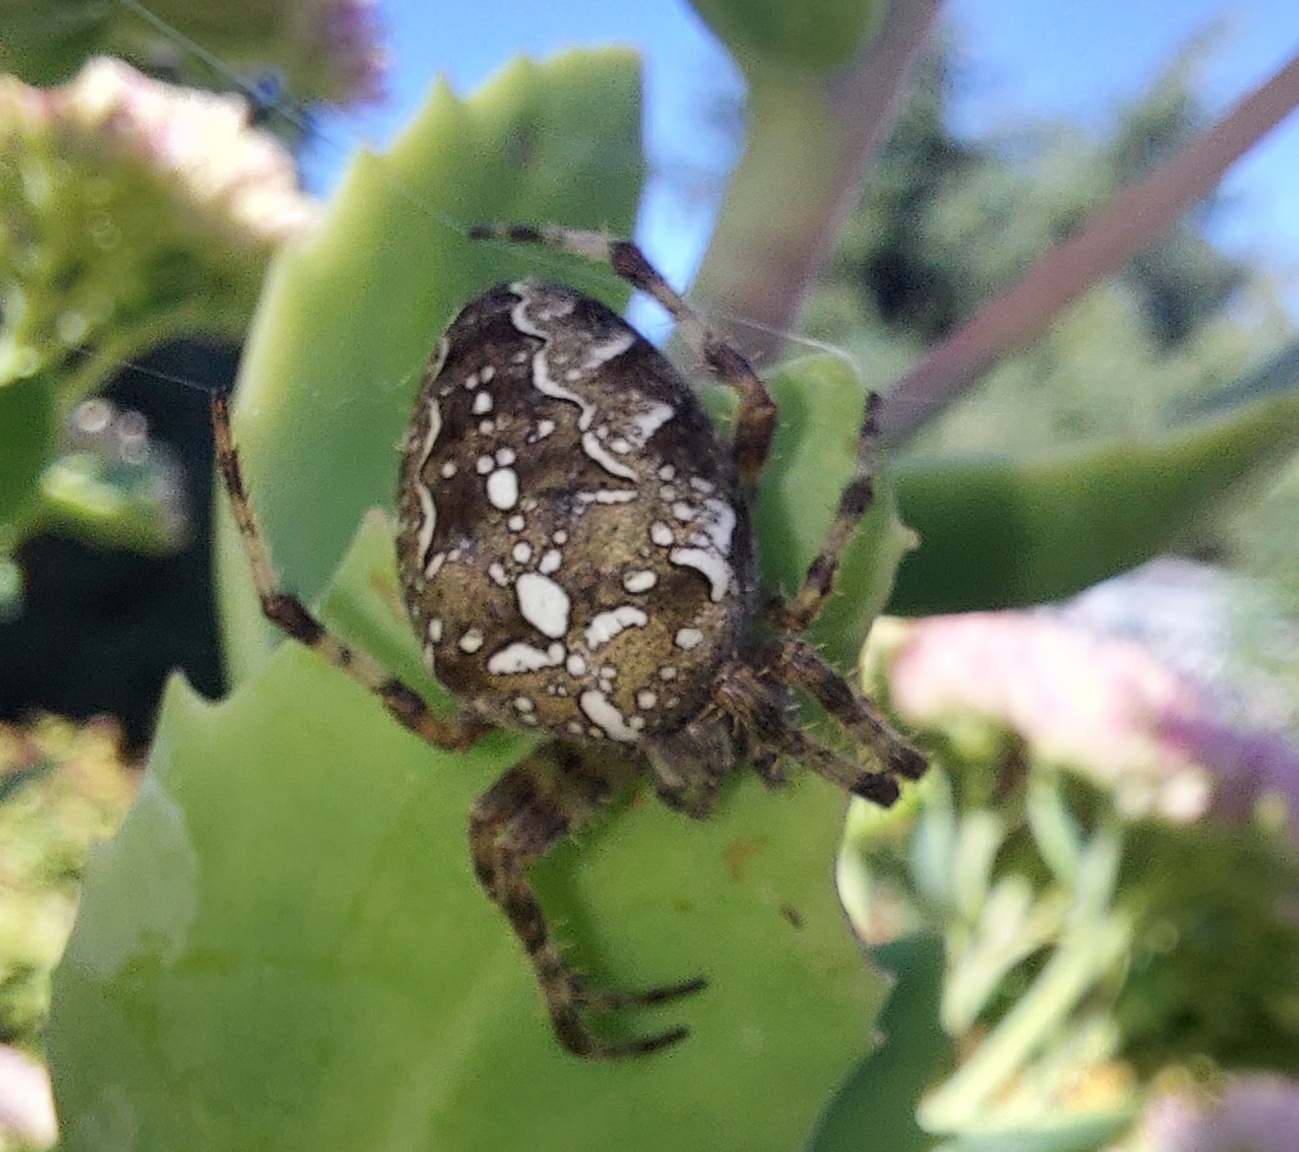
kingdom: Animalia
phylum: Arthropoda
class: Arachnida
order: Araneae
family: Araneidae
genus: Araneus
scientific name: Araneus diadematus
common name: Cross orbweaver
